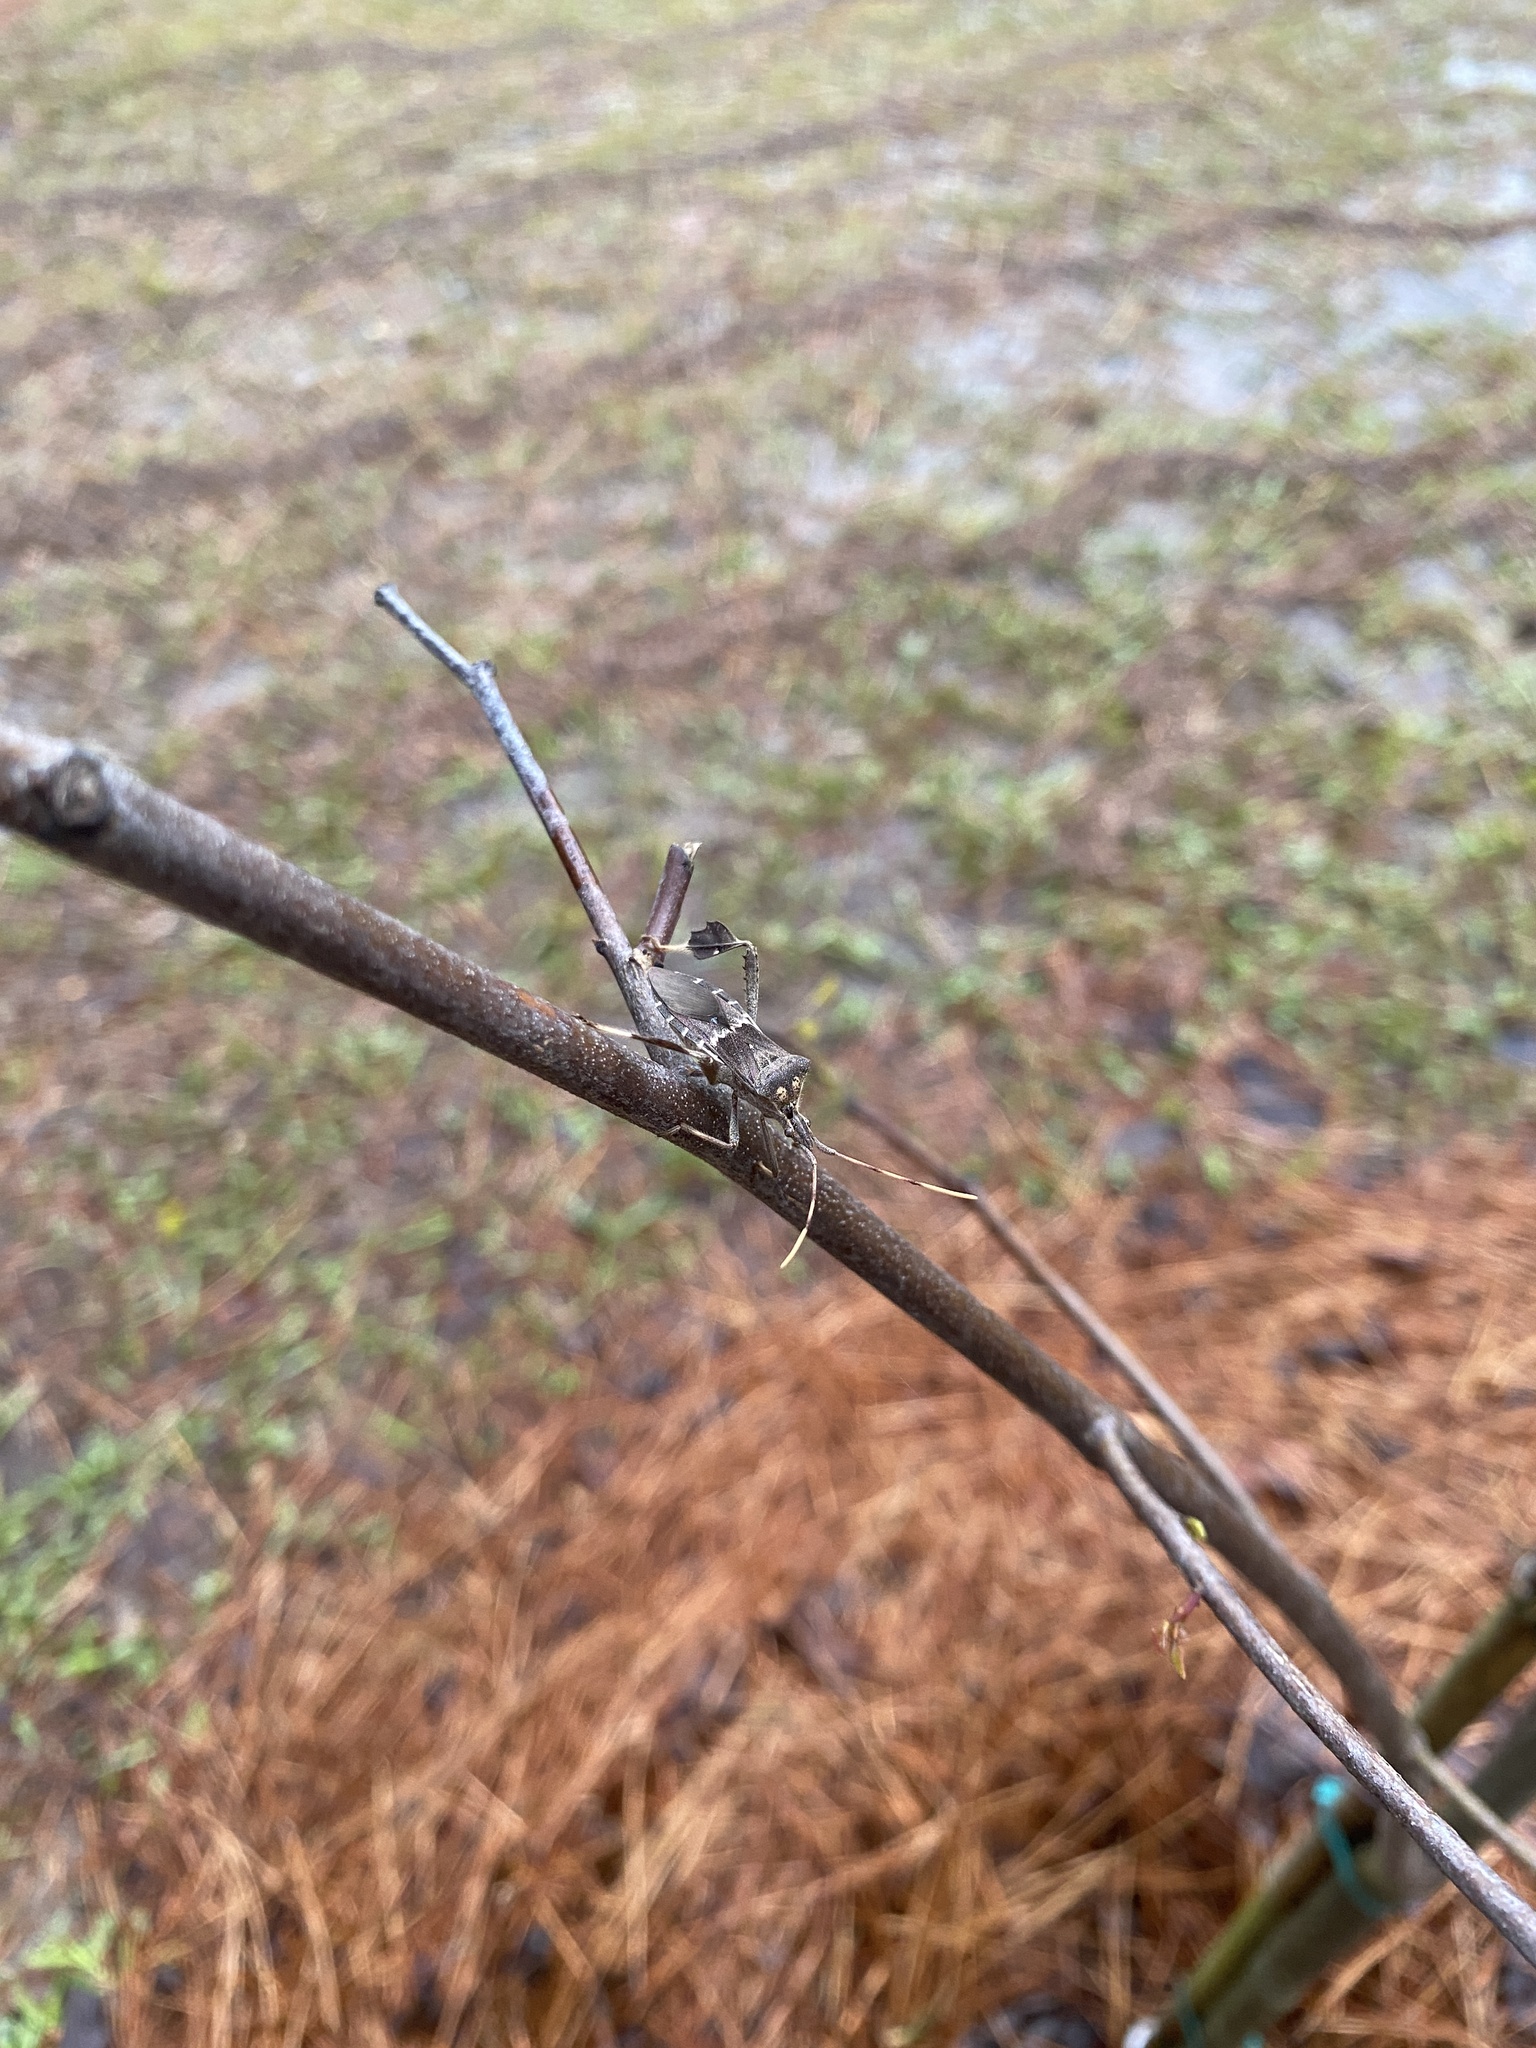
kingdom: Animalia
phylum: Arthropoda
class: Insecta
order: Hemiptera
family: Coreidae
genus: Leptoglossus
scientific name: Leptoglossus zonatus
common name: Large-legged bug
